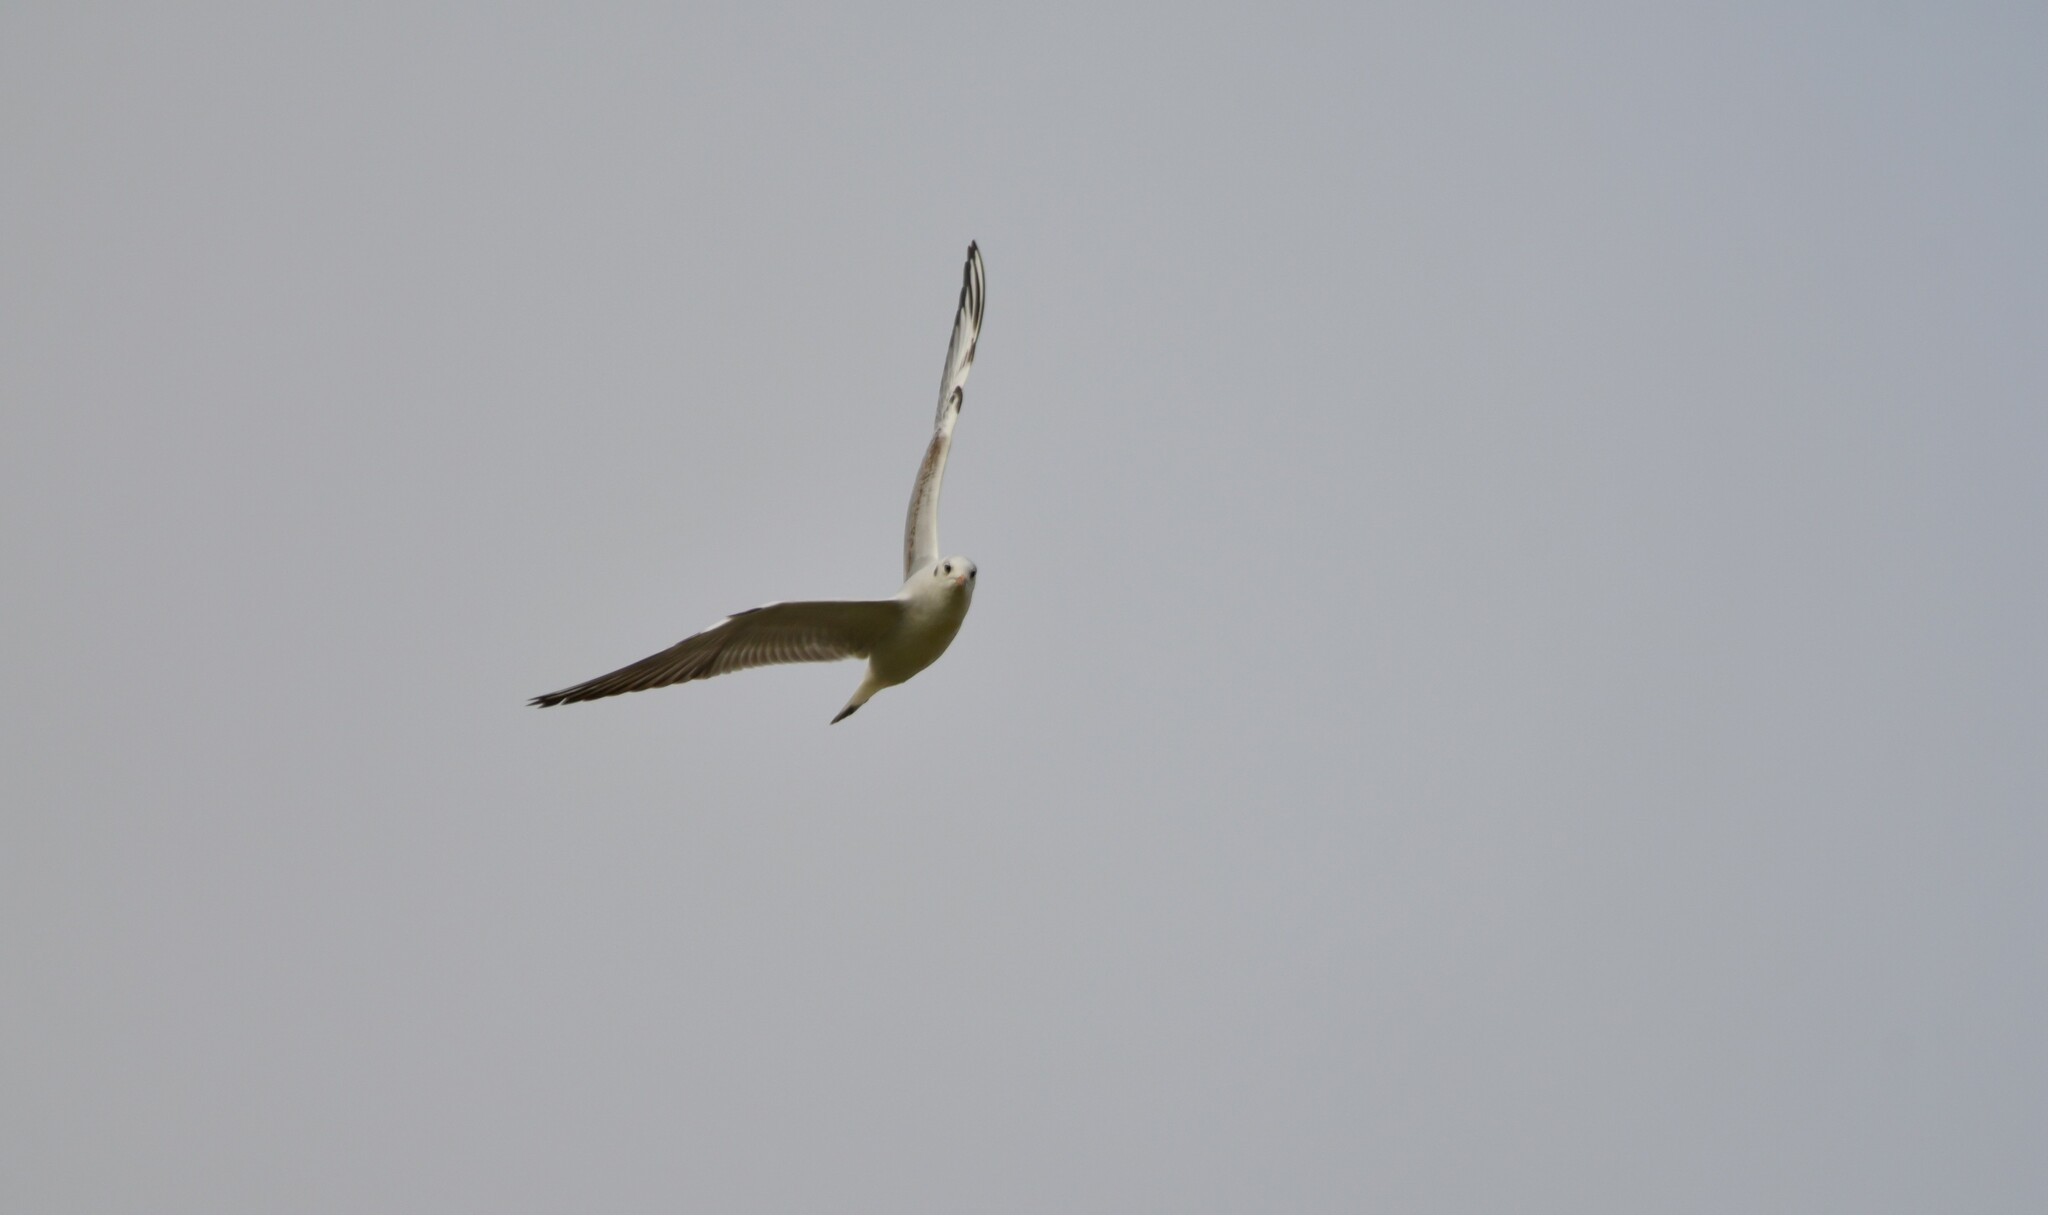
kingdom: Animalia
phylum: Chordata
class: Aves
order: Charadriiformes
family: Laridae
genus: Chroicocephalus
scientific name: Chroicocephalus ridibundus
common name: Black-headed gull
